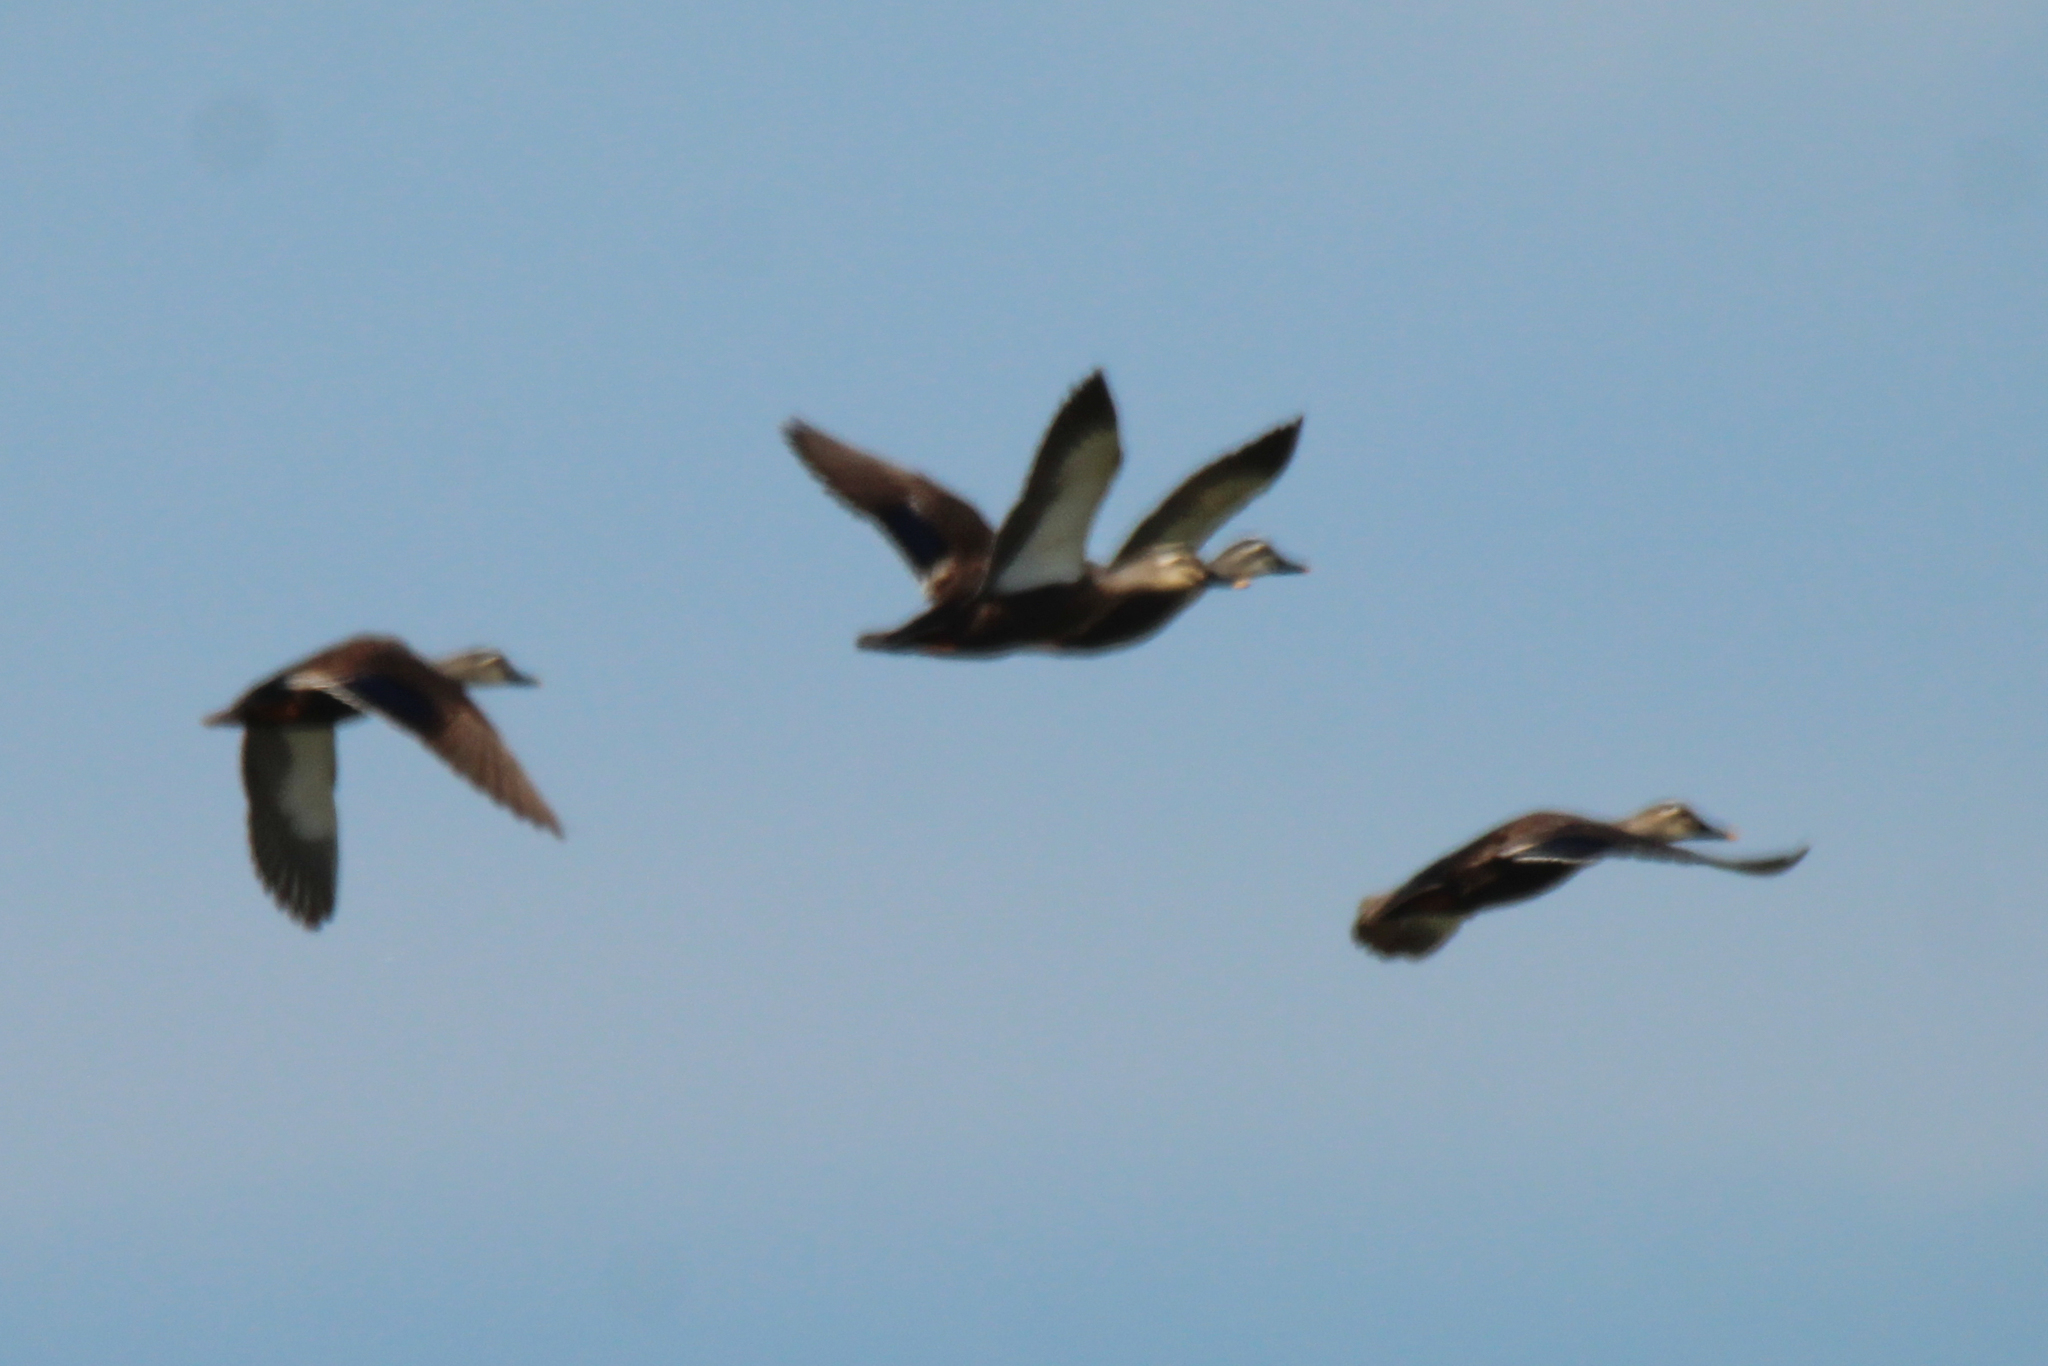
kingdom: Animalia
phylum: Chordata
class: Aves
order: Anseriformes
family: Anatidae
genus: Anas
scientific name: Anas zonorhyncha
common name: Eastern spot-billed duck
